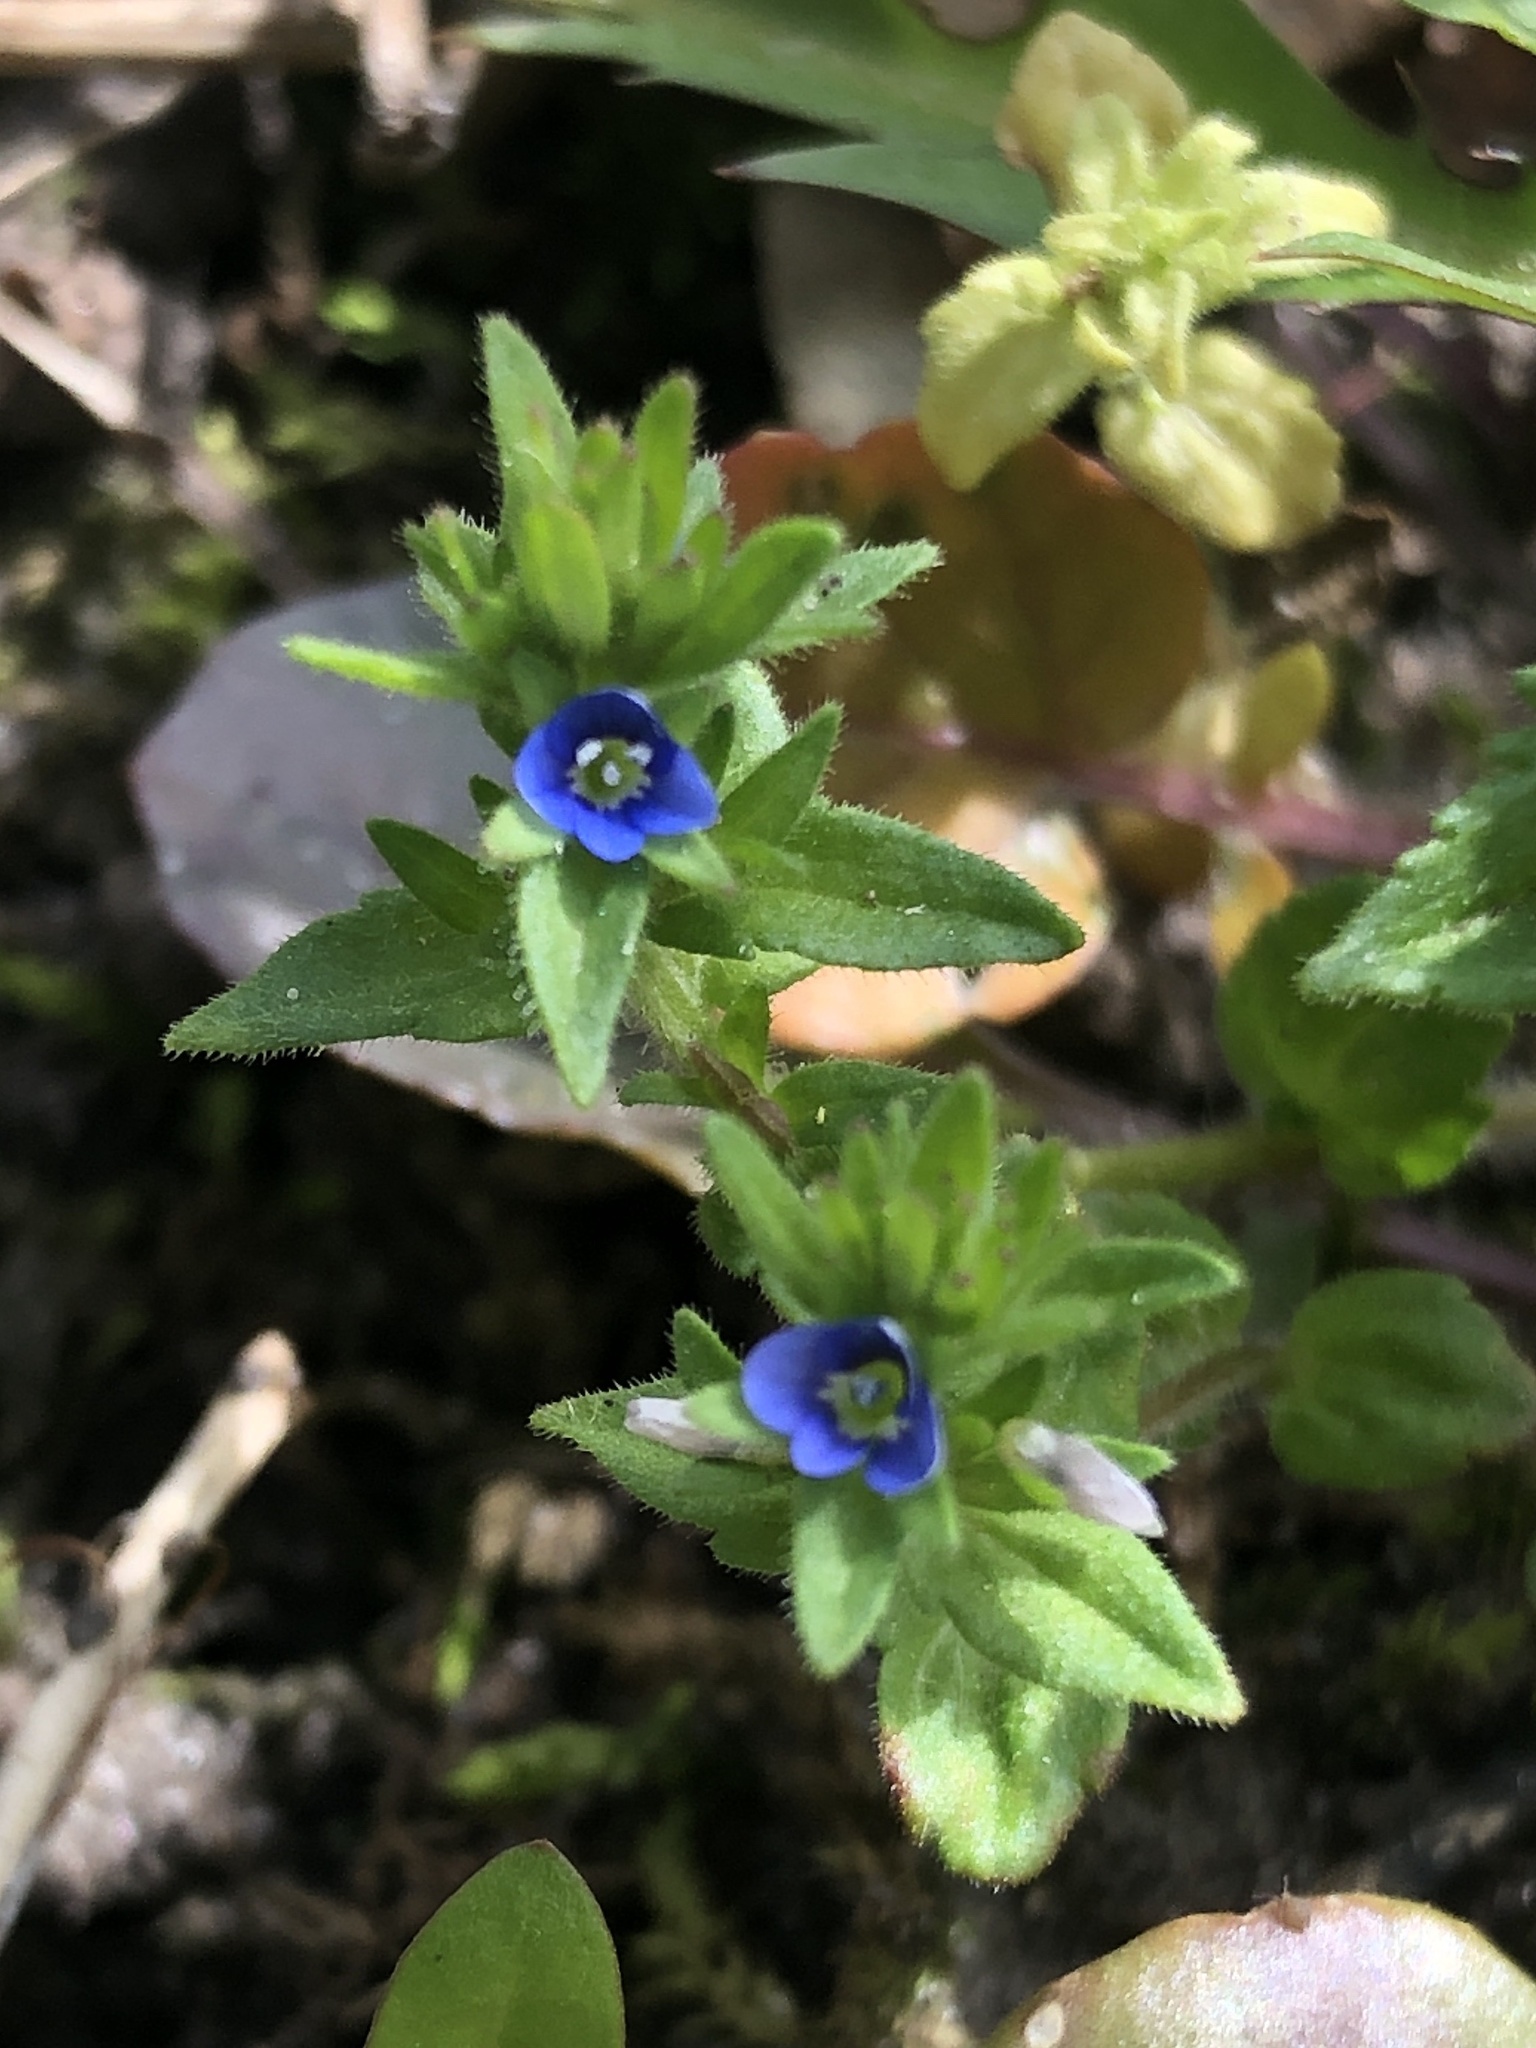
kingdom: Plantae
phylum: Tracheophyta
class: Magnoliopsida
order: Lamiales
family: Plantaginaceae
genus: Veronica
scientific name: Veronica arvensis
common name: Corn speedwell
